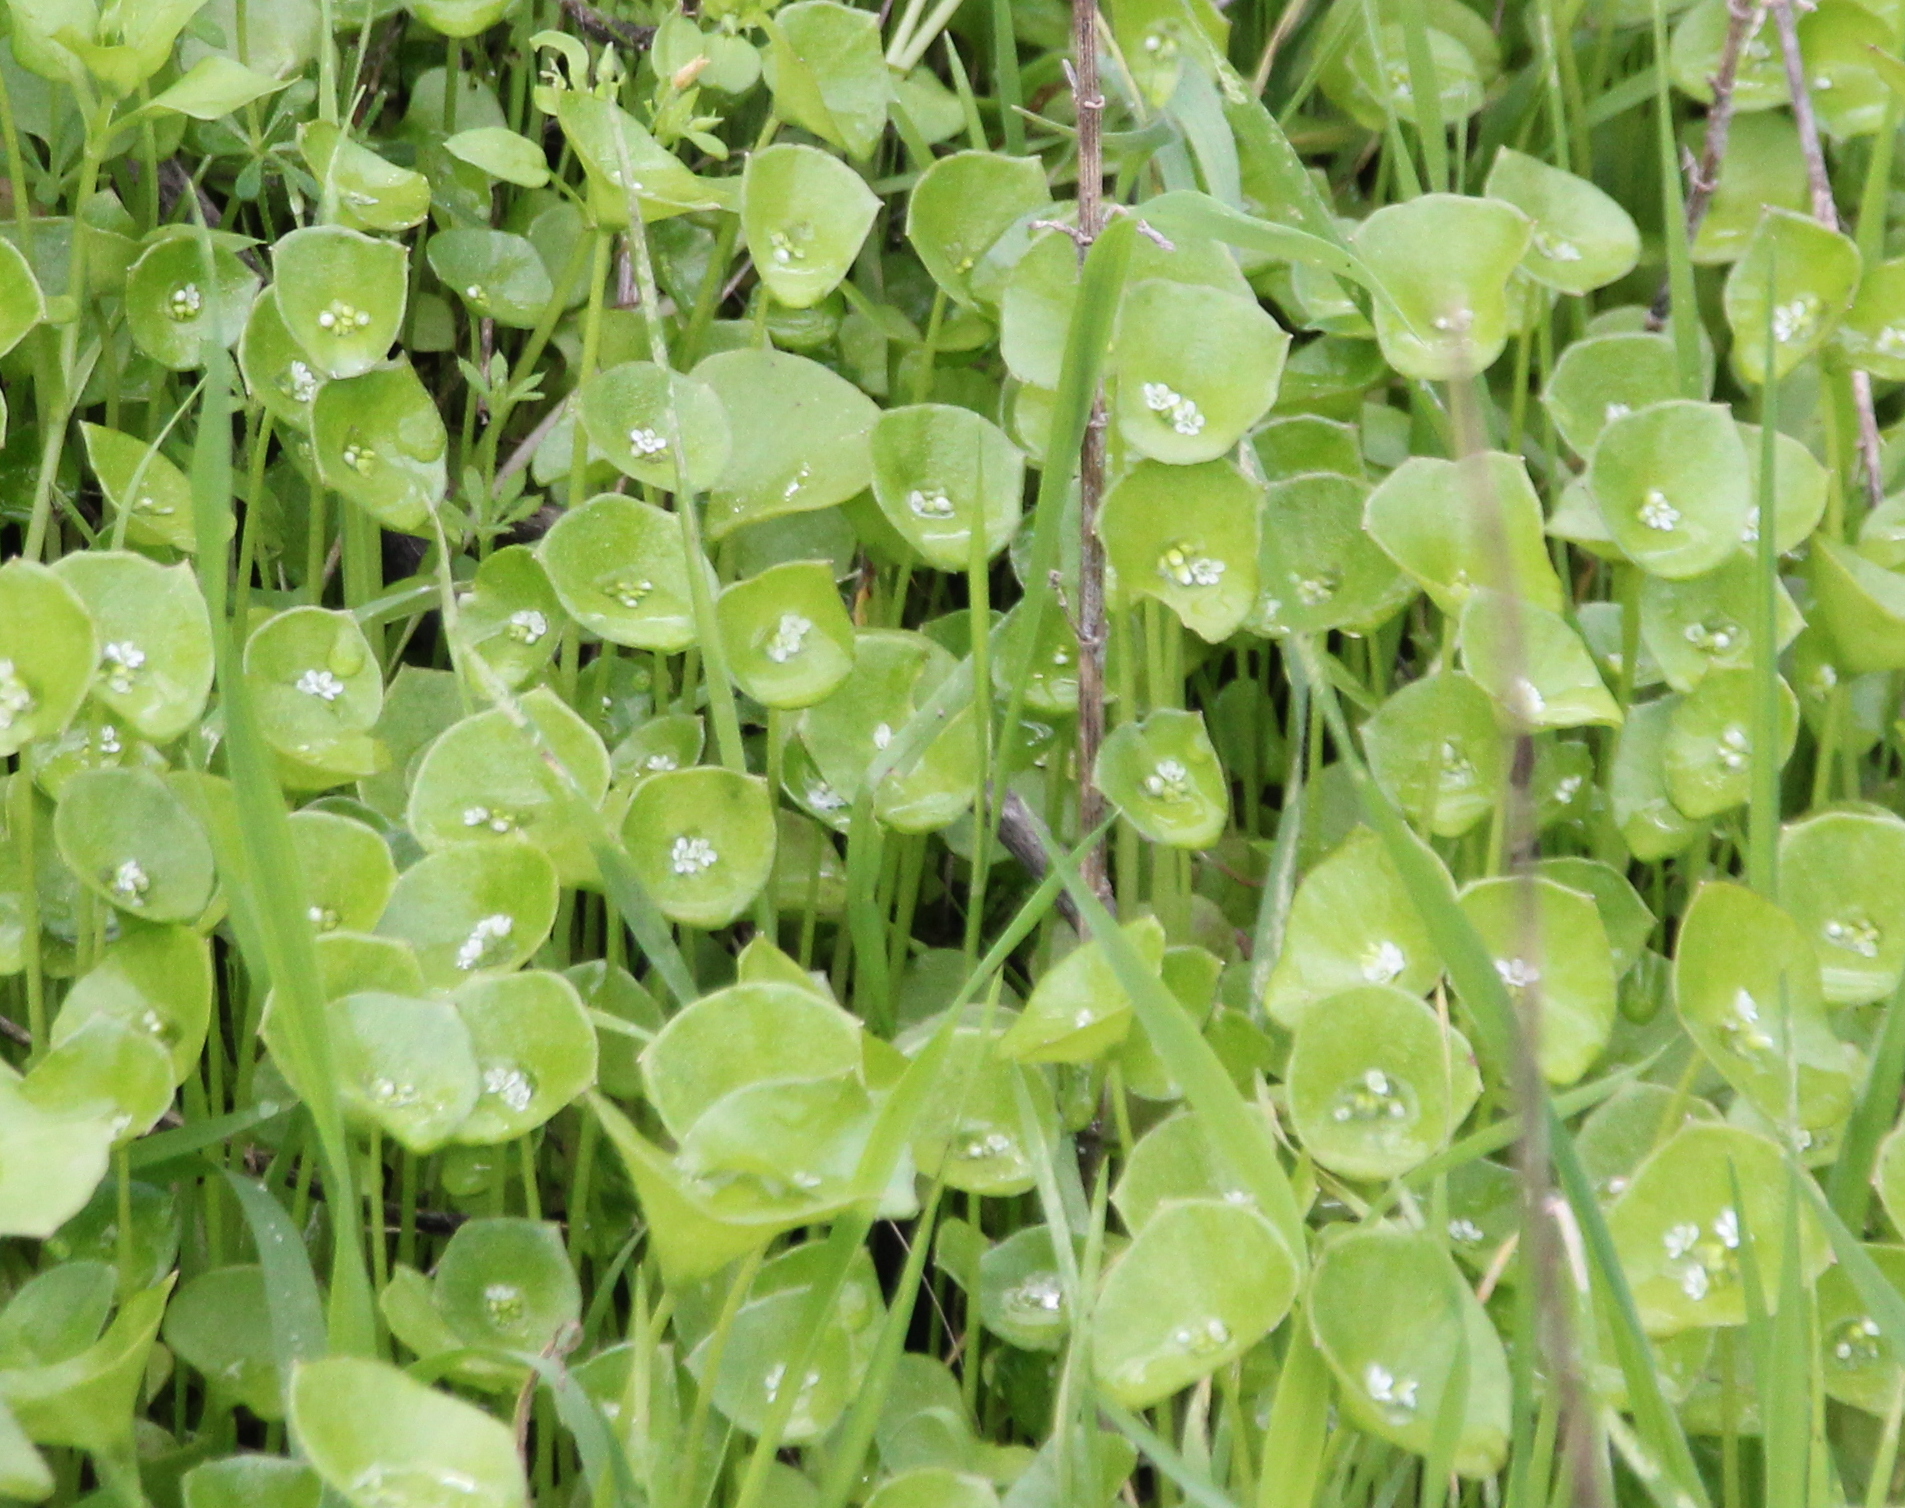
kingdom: Plantae
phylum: Tracheophyta
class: Magnoliopsida
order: Caryophyllales
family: Montiaceae
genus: Claytonia
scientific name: Claytonia perfoliata
